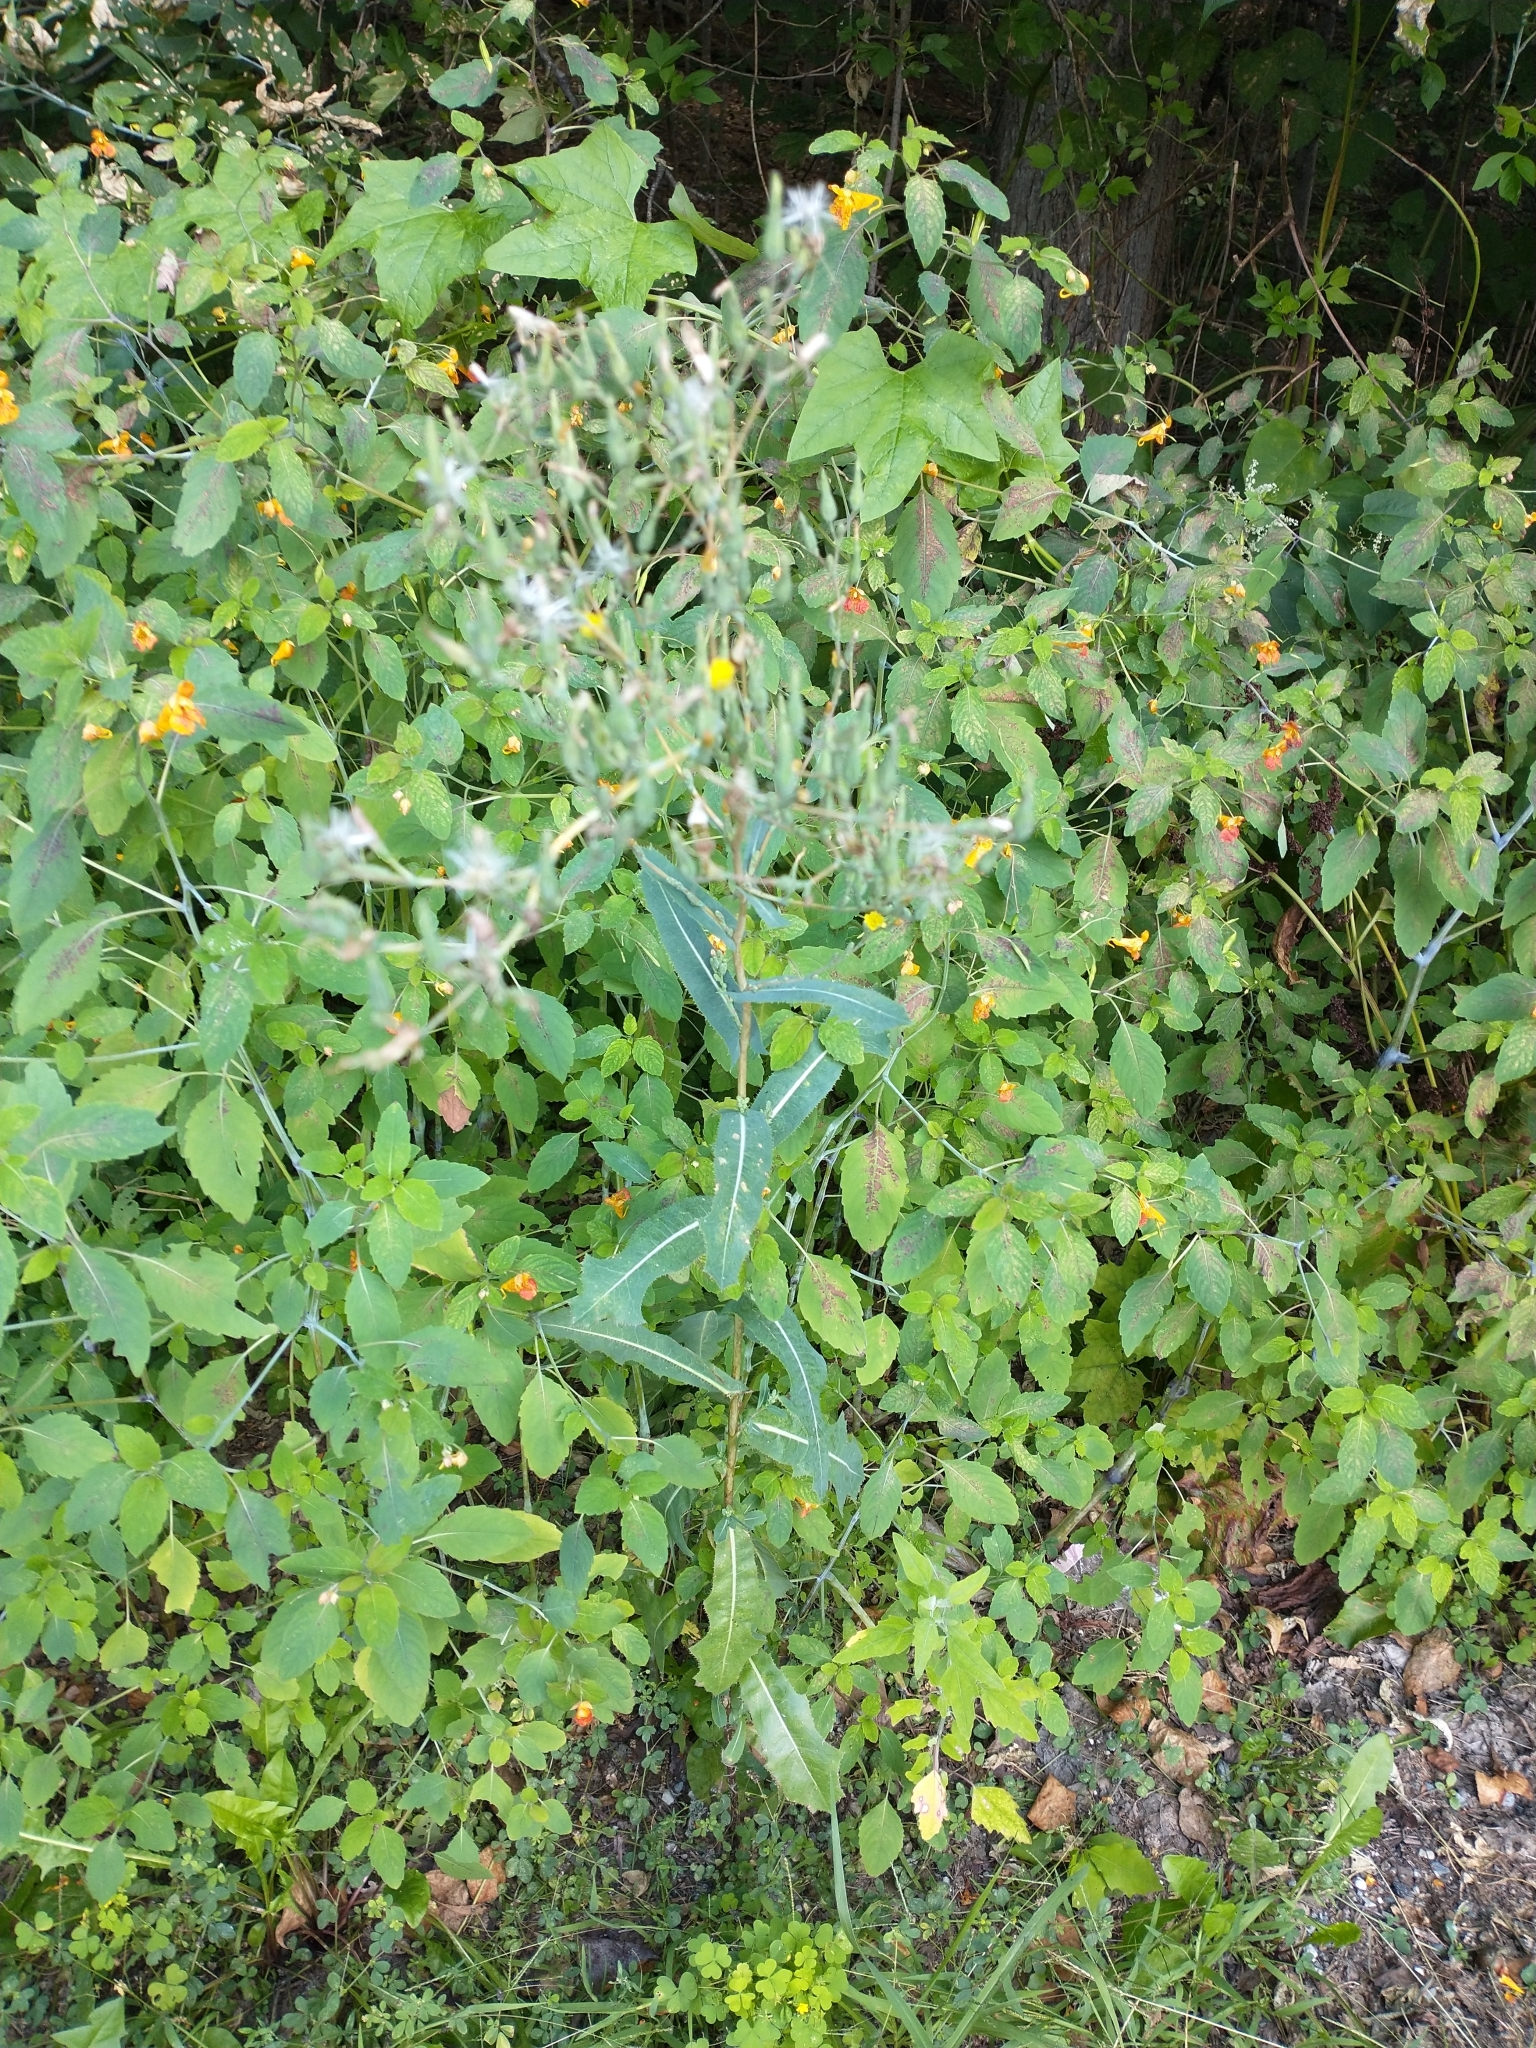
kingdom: Plantae
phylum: Tracheophyta
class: Magnoliopsida
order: Asterales
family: Asteraceae
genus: Lactuca
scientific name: Lactuca serriola
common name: Prickly lettuce
